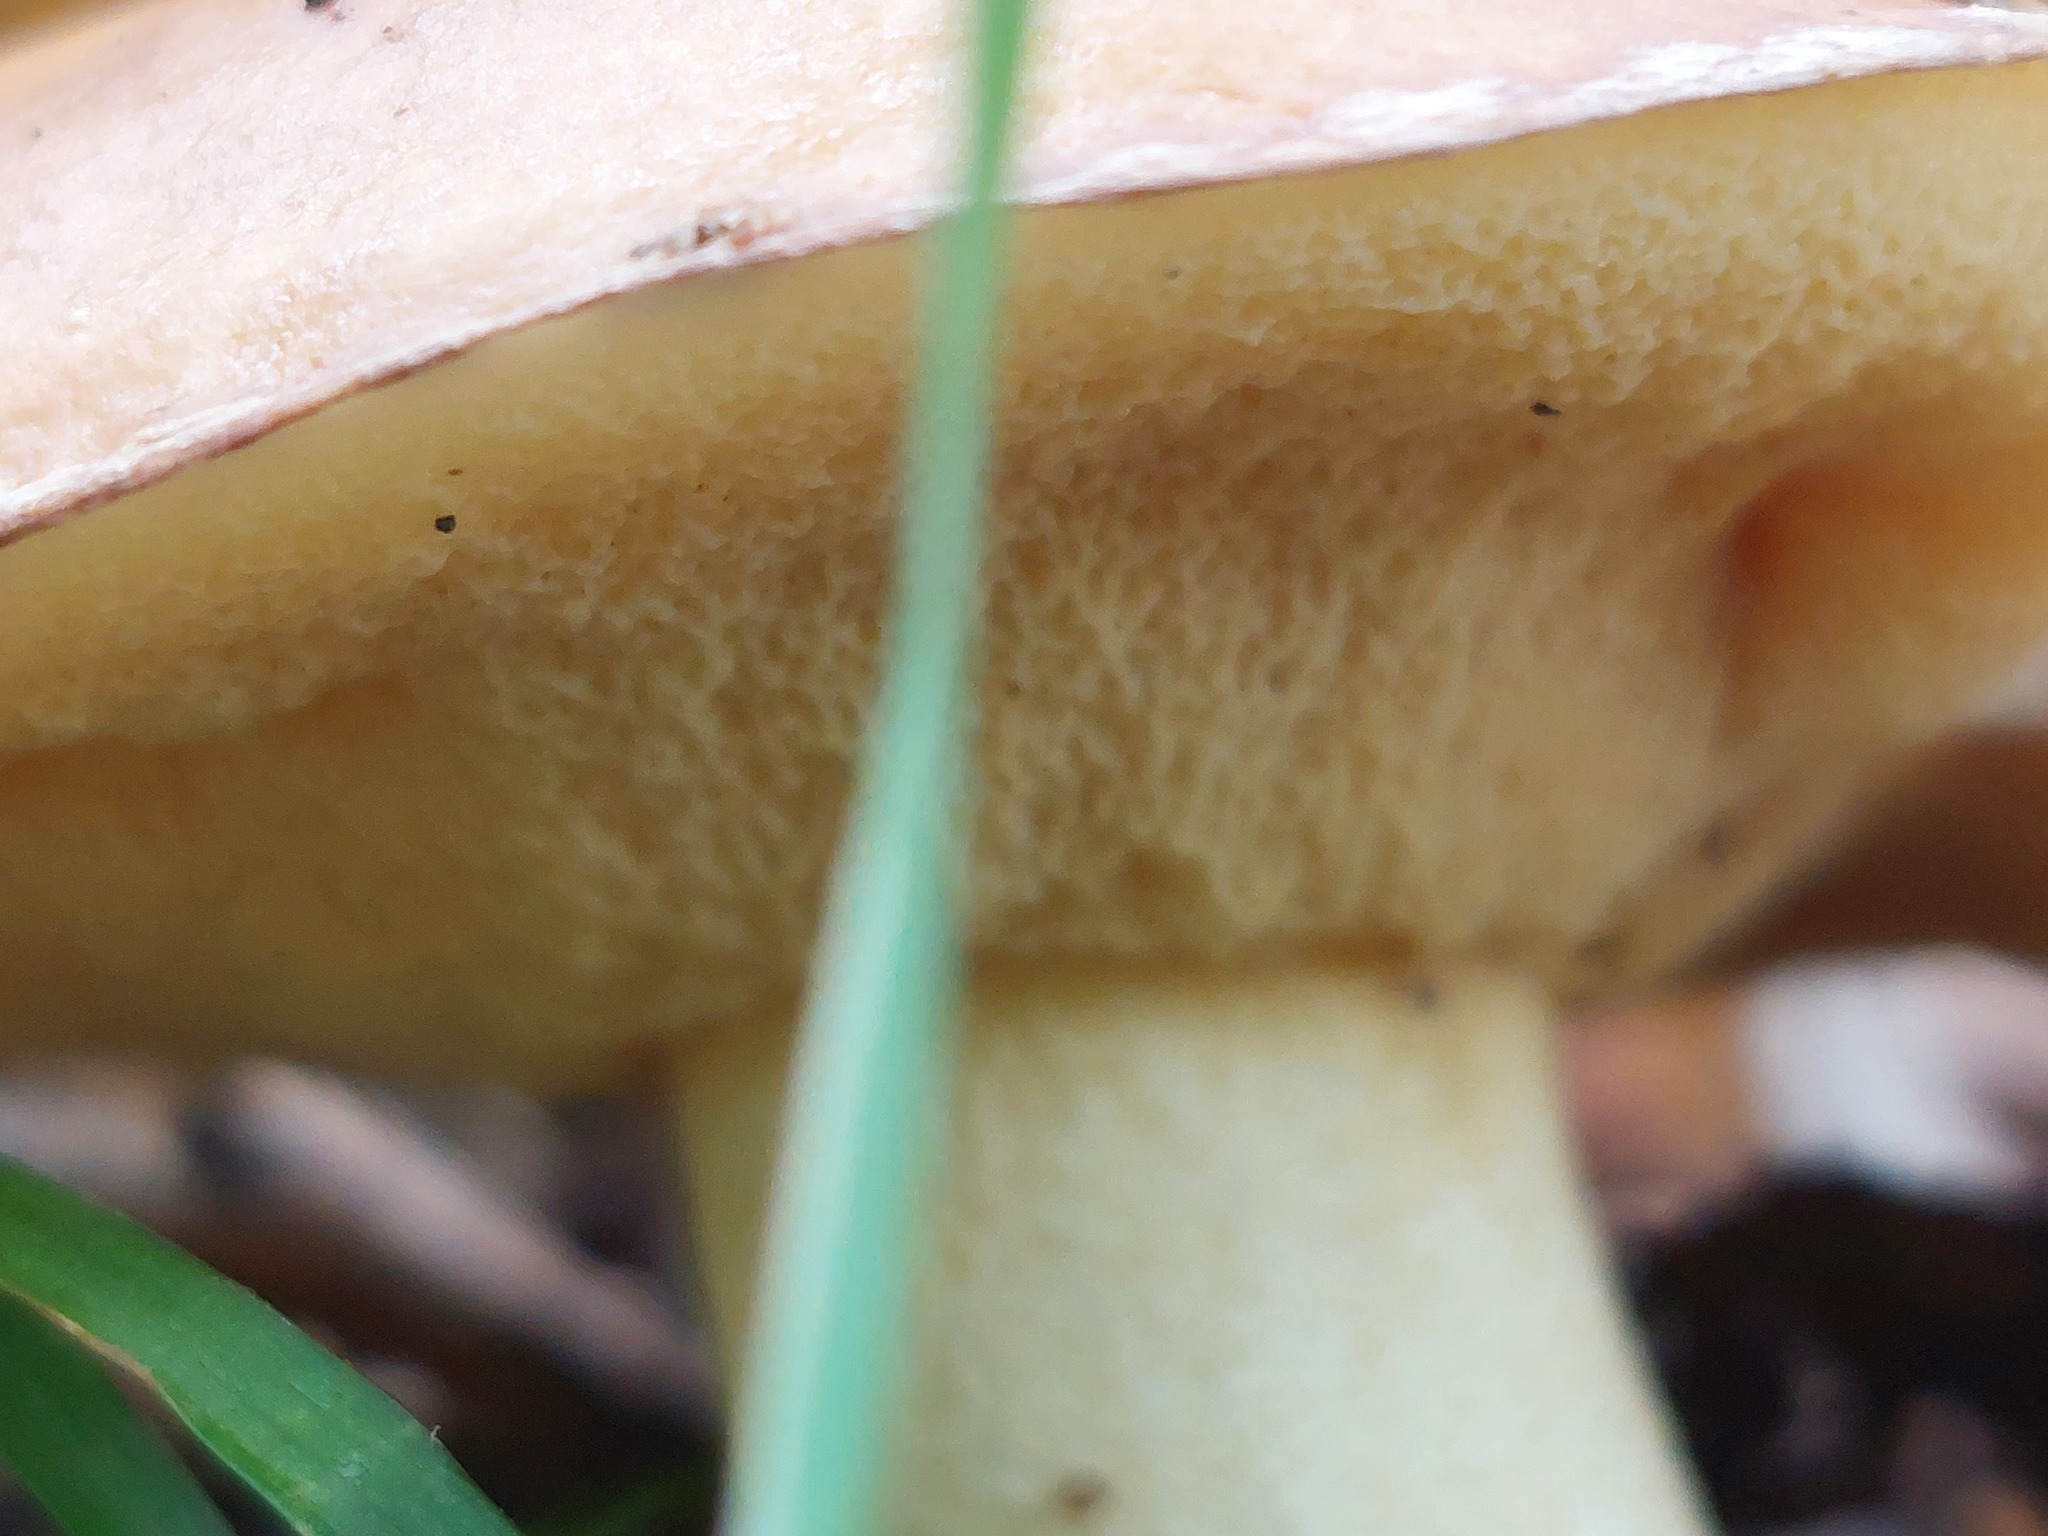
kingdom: Fungi
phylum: Basidiomycota
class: Agaricomycetes
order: Boletales
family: Suillaceae
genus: Suillus
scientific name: Suillus granulatus
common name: Weeping bolete
